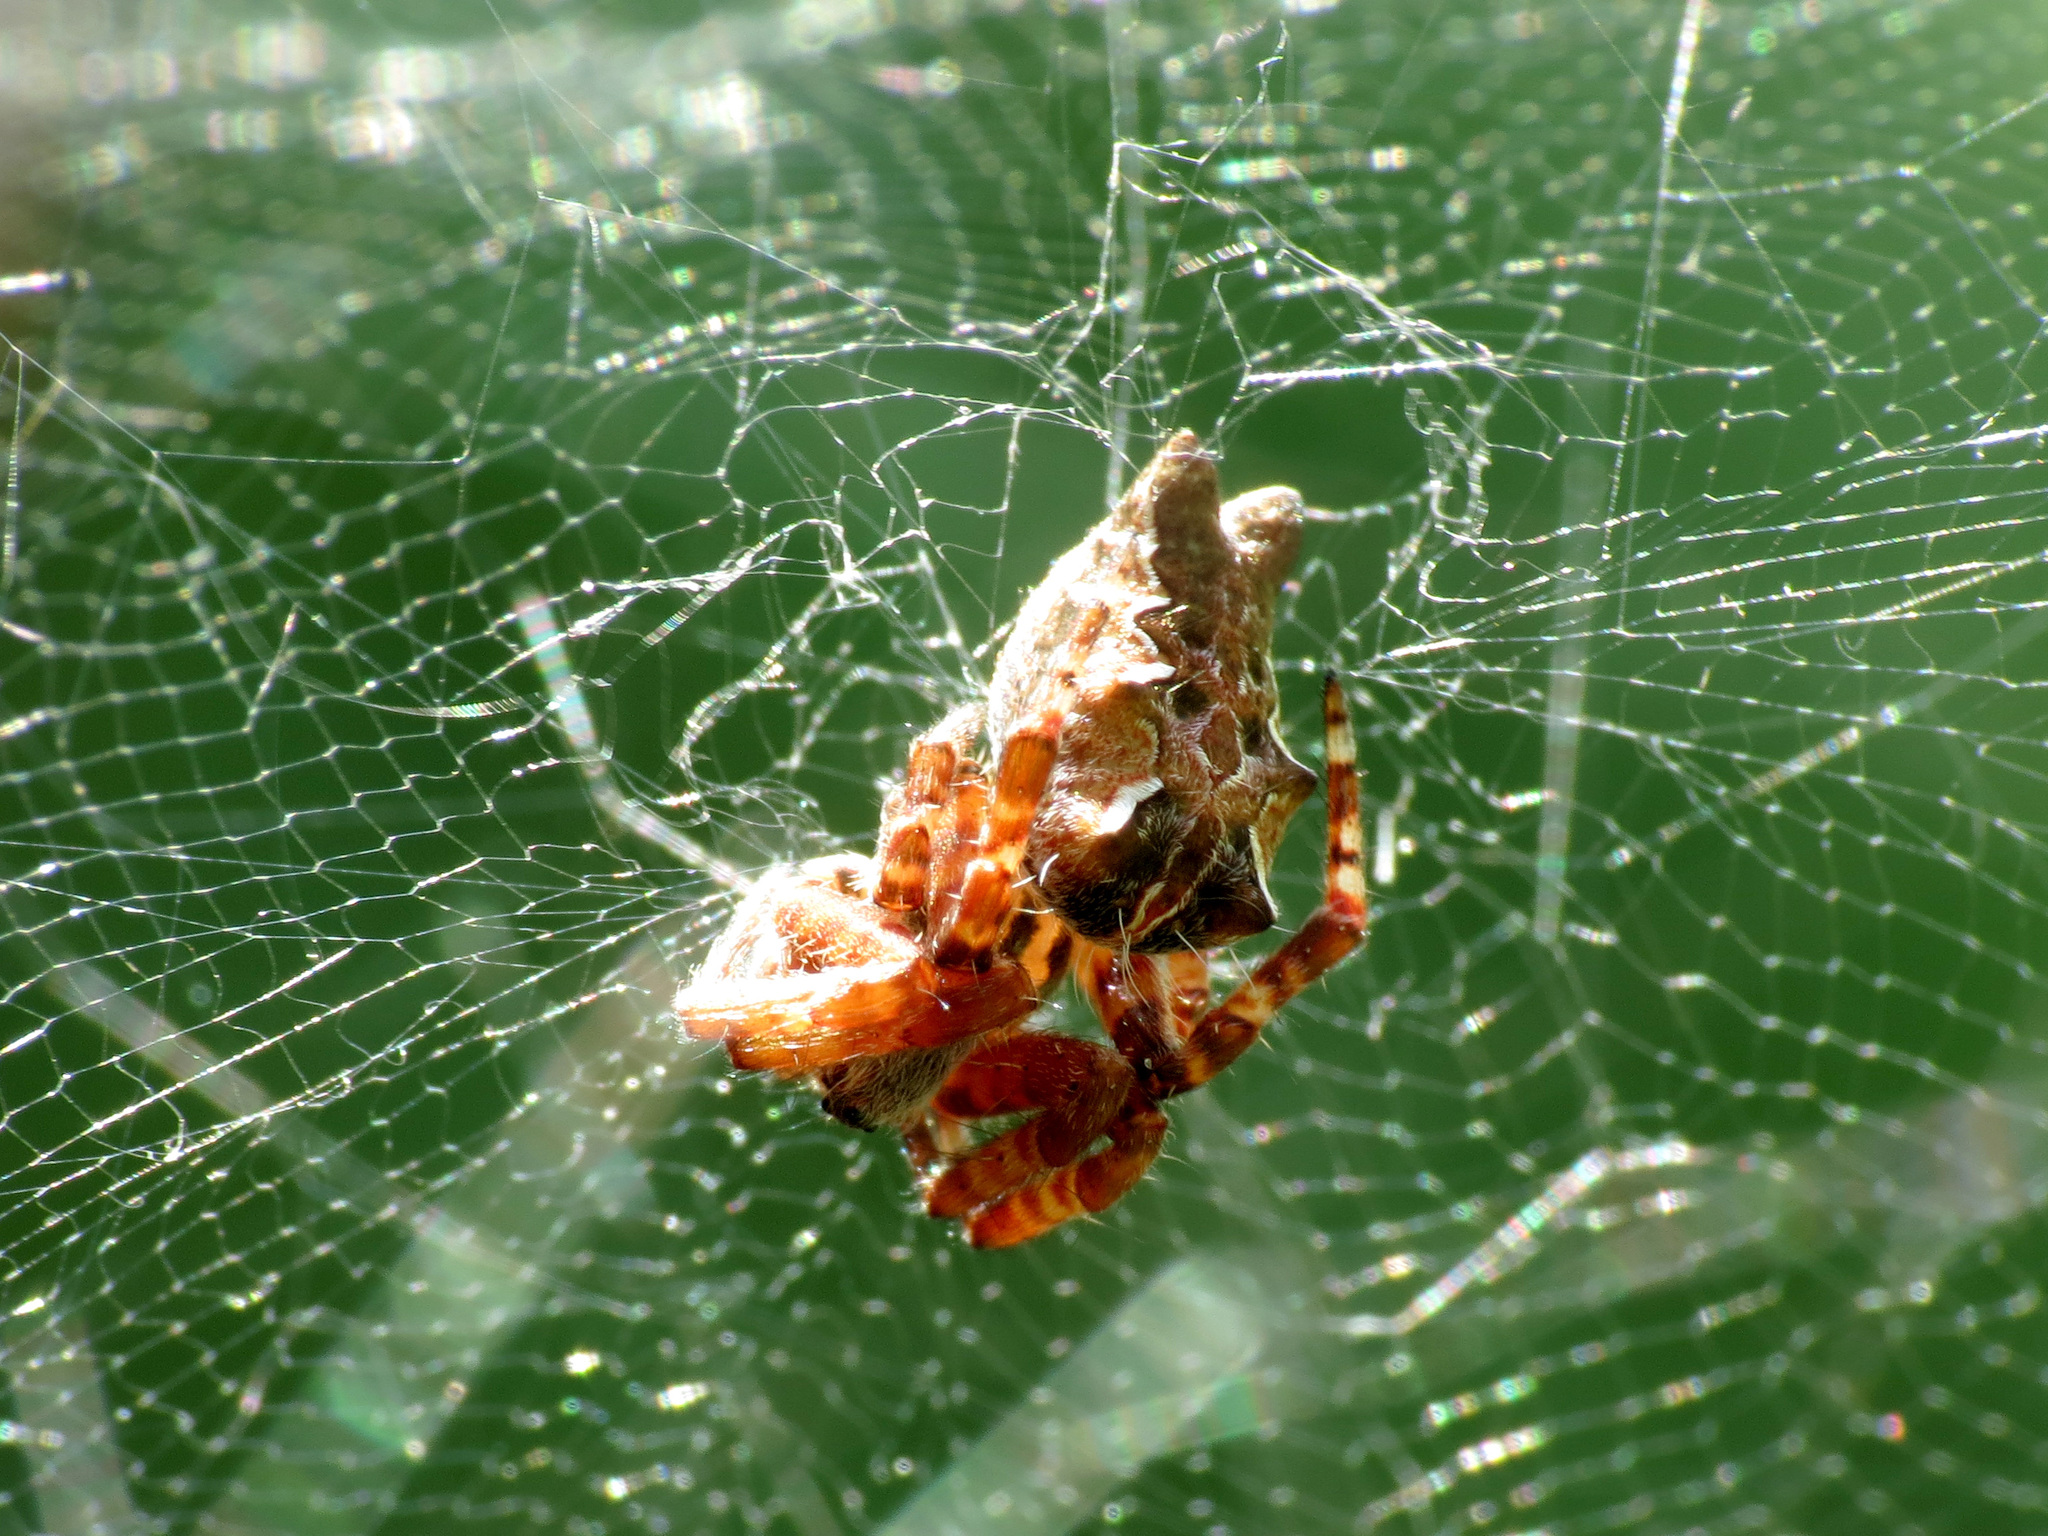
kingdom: Animalia
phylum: Arthropoda
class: Arachnida
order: Araneae
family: Araneidae
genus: Cyrtophora
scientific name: Cyrtophora citricola
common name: Orb weavers
